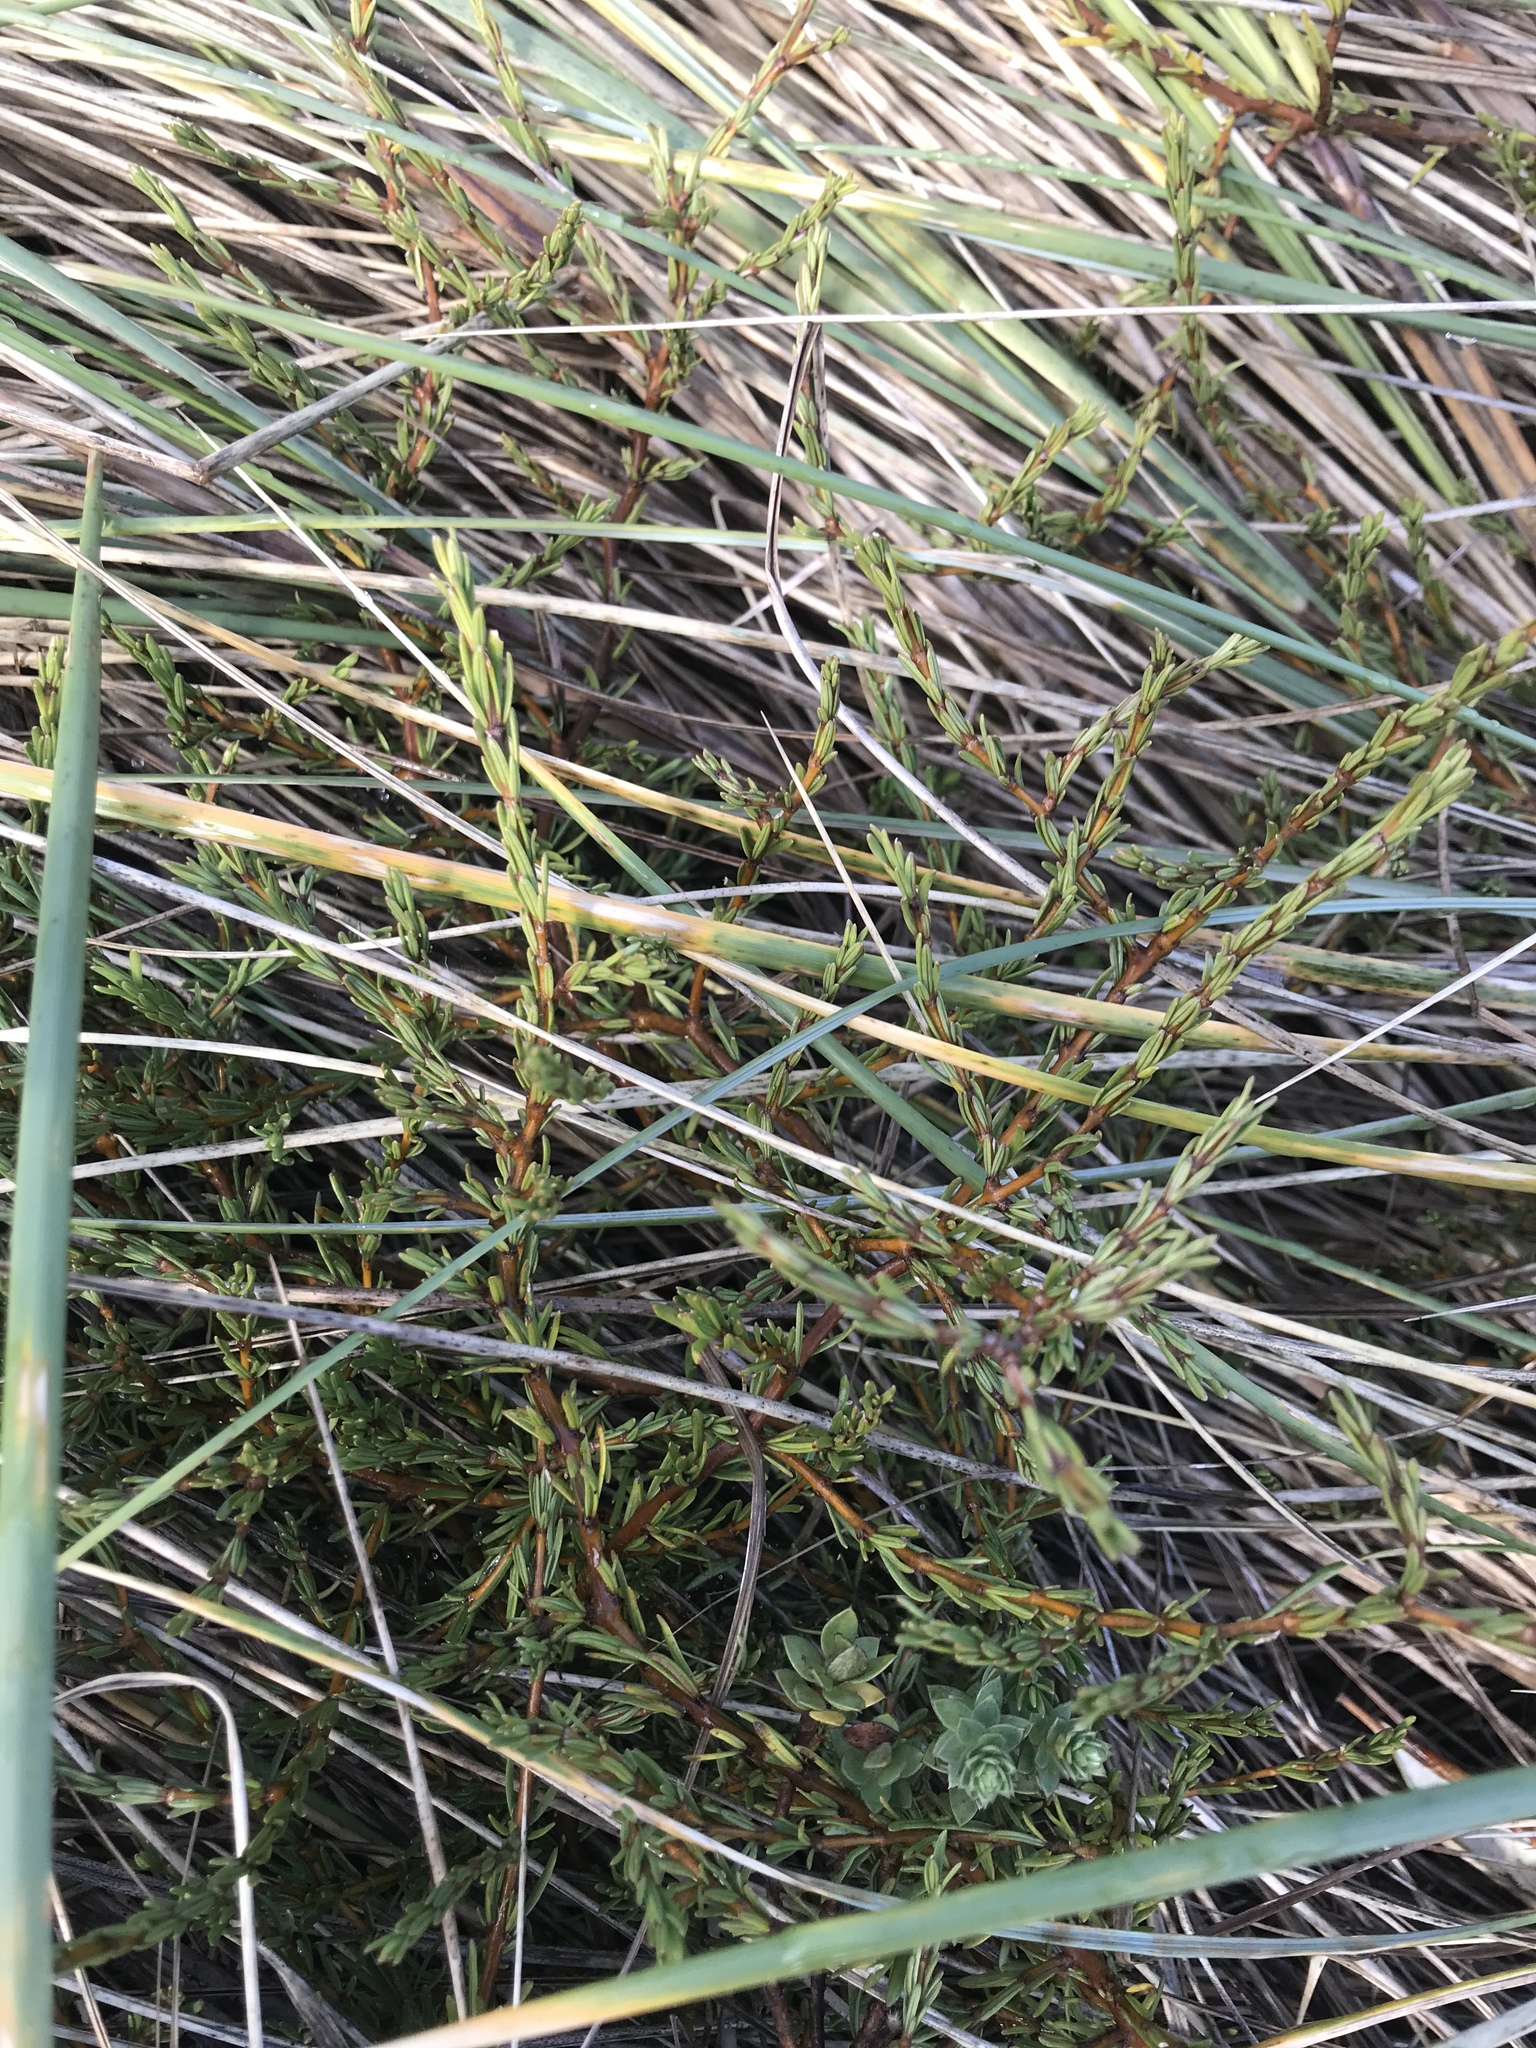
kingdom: Plantae
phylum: Tracheophyta
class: Magnoliopsida
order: Gentianales
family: Rubiaceae
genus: Coprosma
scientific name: Coprosma acerosa
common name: Sand coprosma
